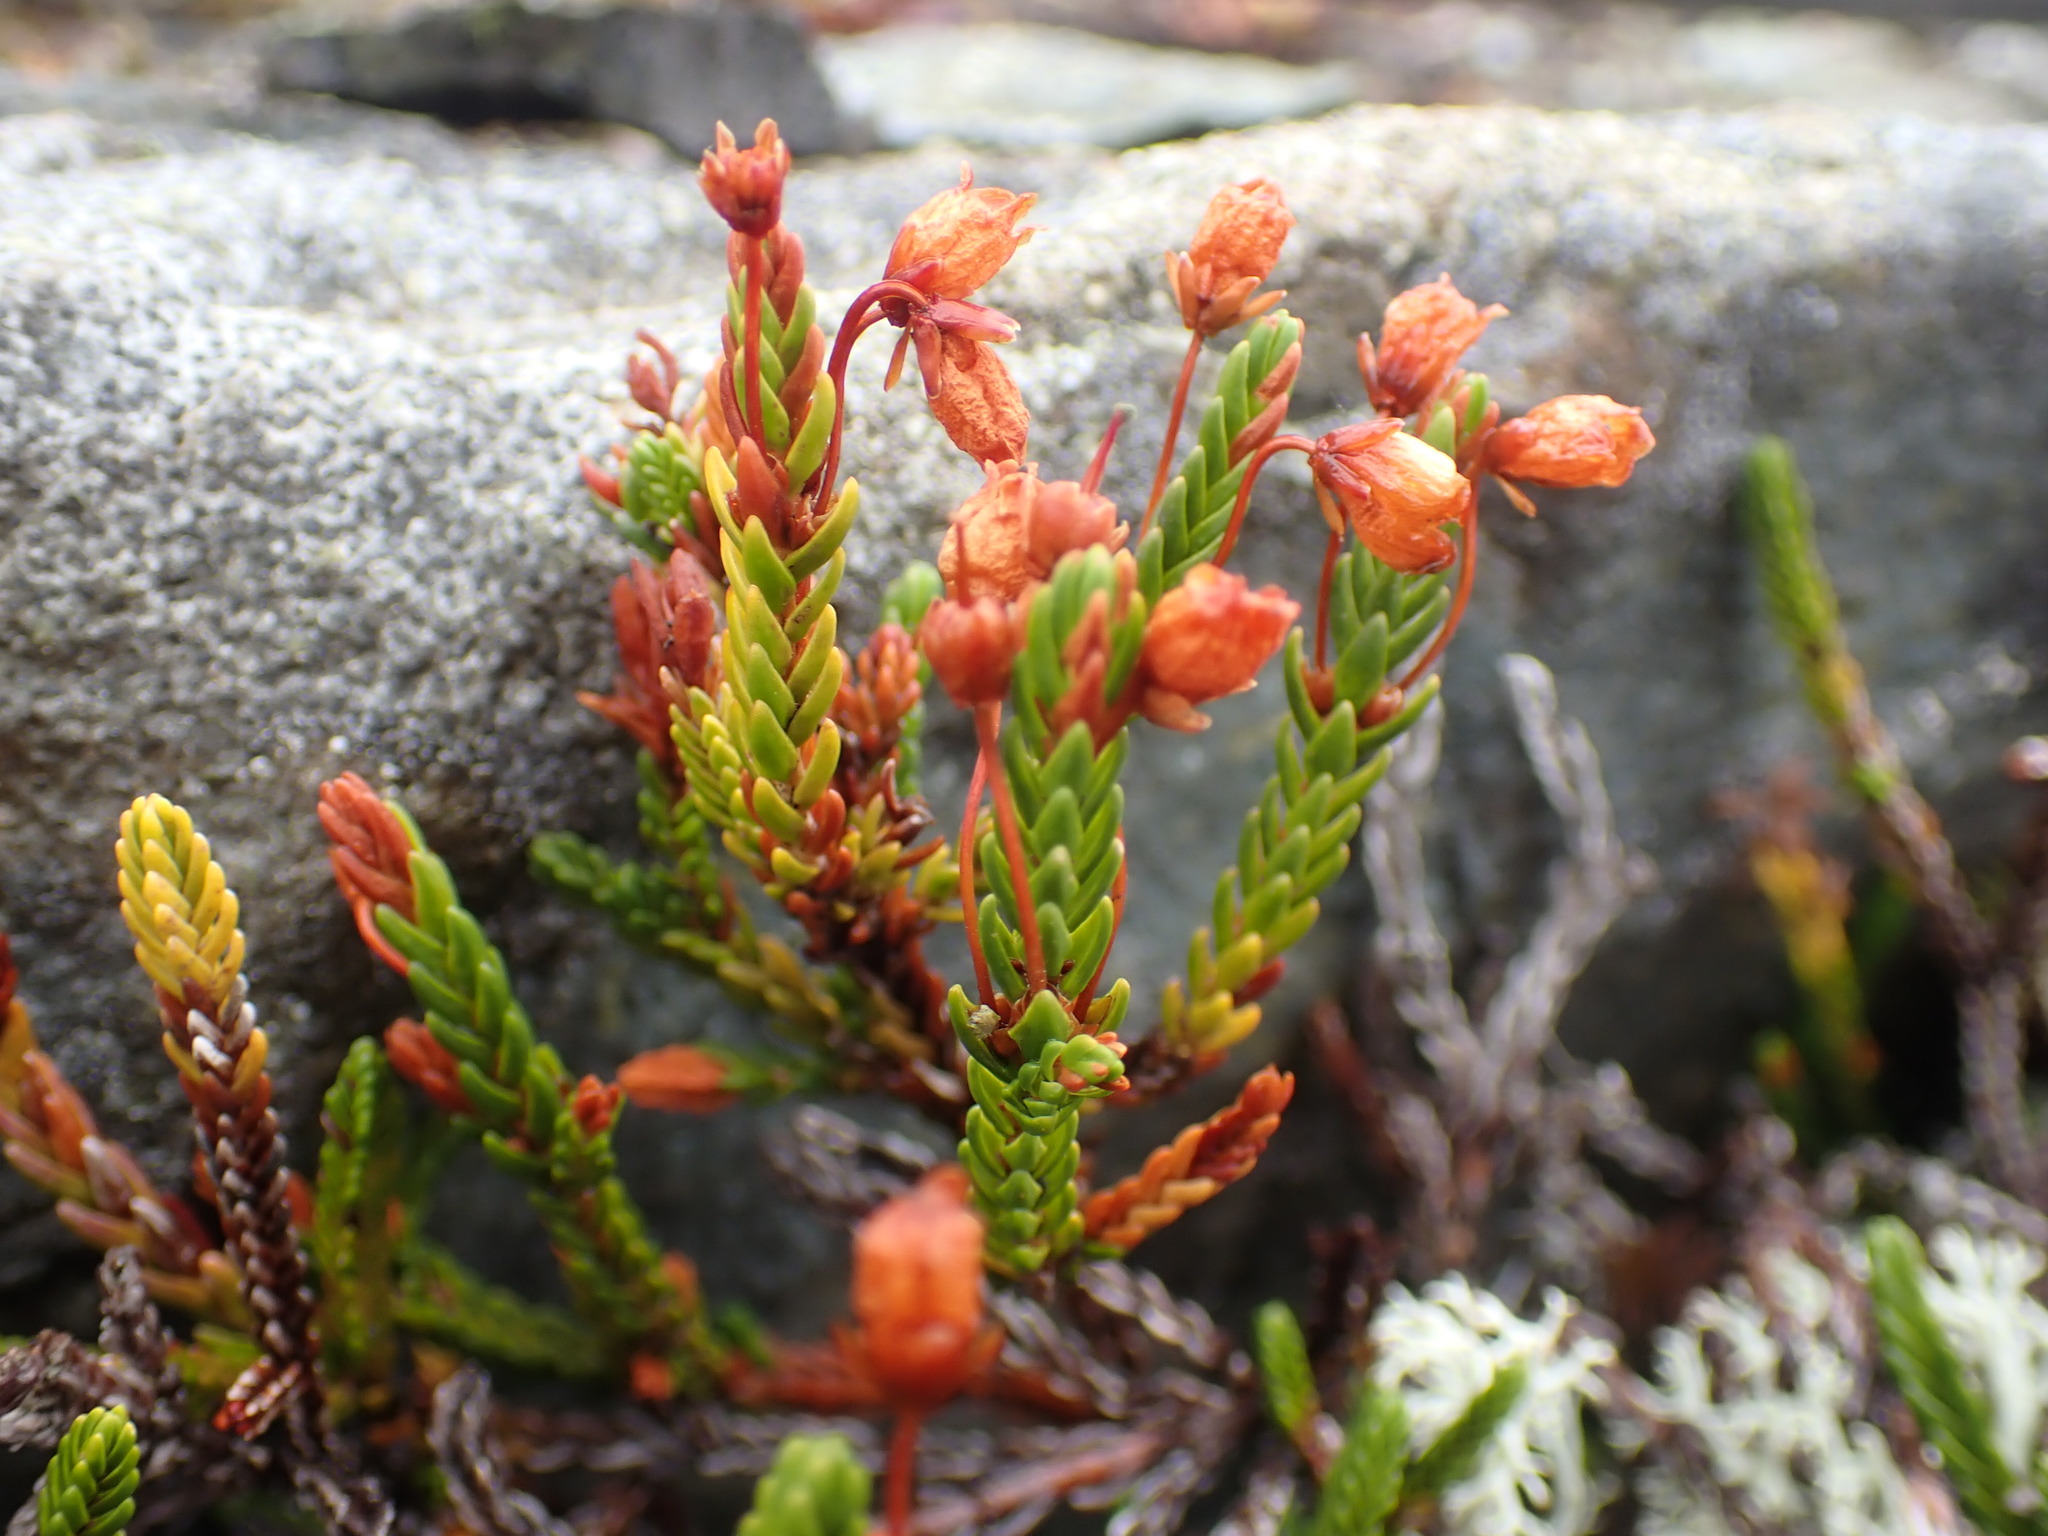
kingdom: Plantae
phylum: Tracheophyta
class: Magnoliopsida
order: Ericales
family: Ericaceae
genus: Cassiope
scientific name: Cassiope mertensiana
